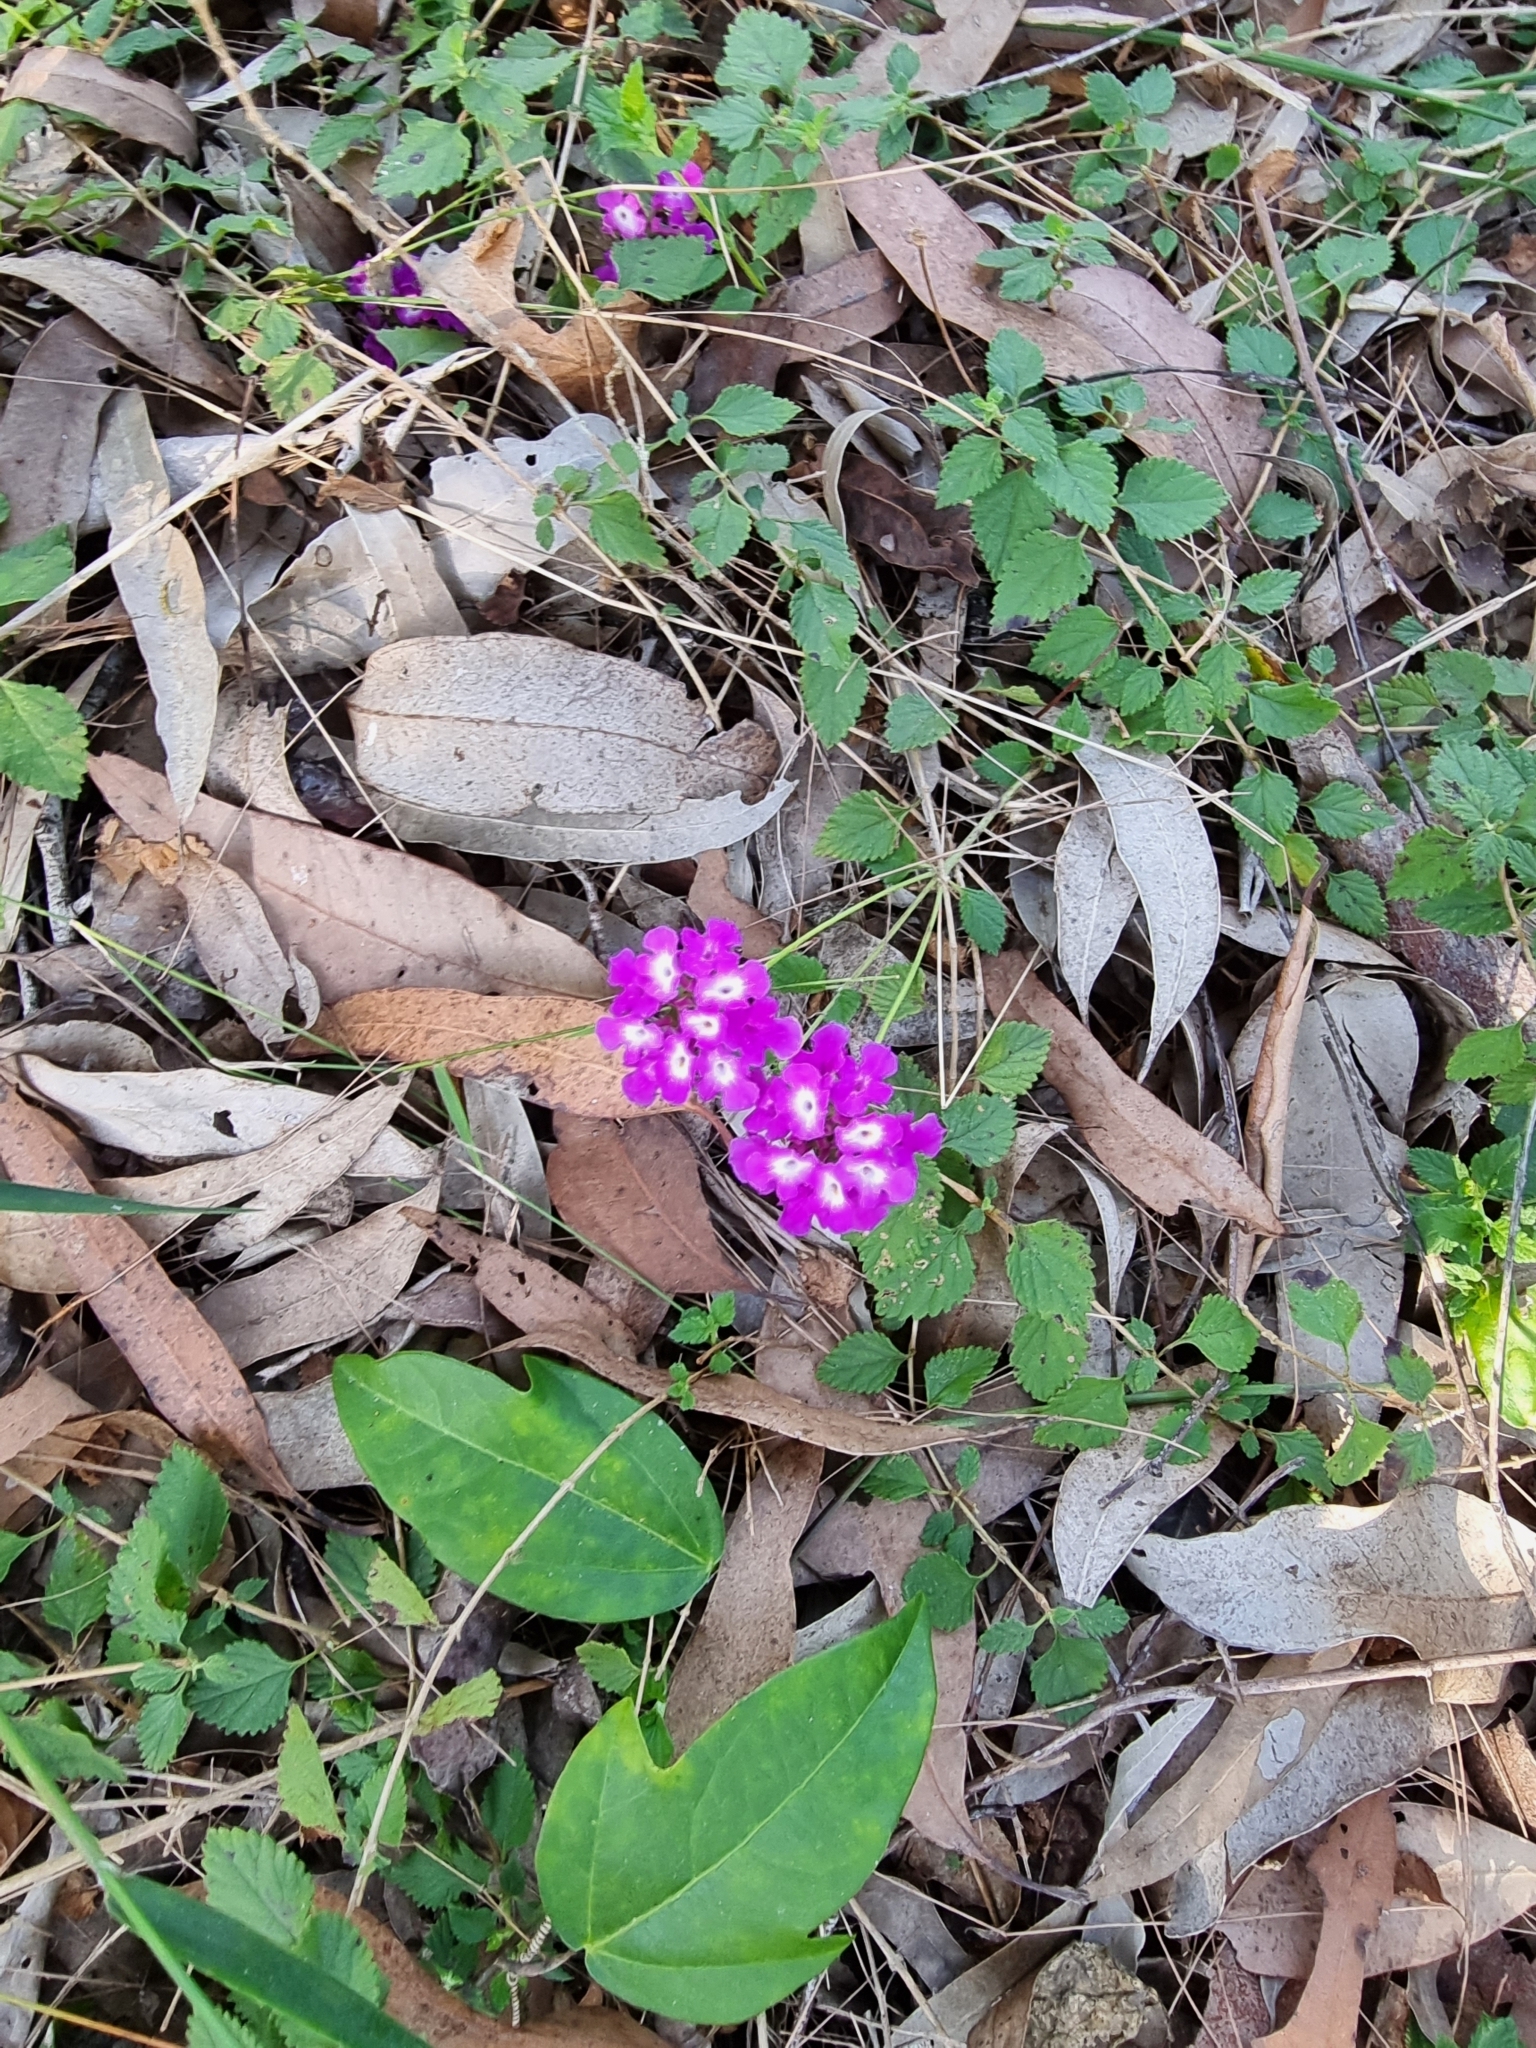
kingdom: Plantae
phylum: Tracheophyta
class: Magnoliopsida
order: Lamiales
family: Verbenaceae
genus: Lantana
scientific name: Lantana montevidensis
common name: Trailing shrubverbena
